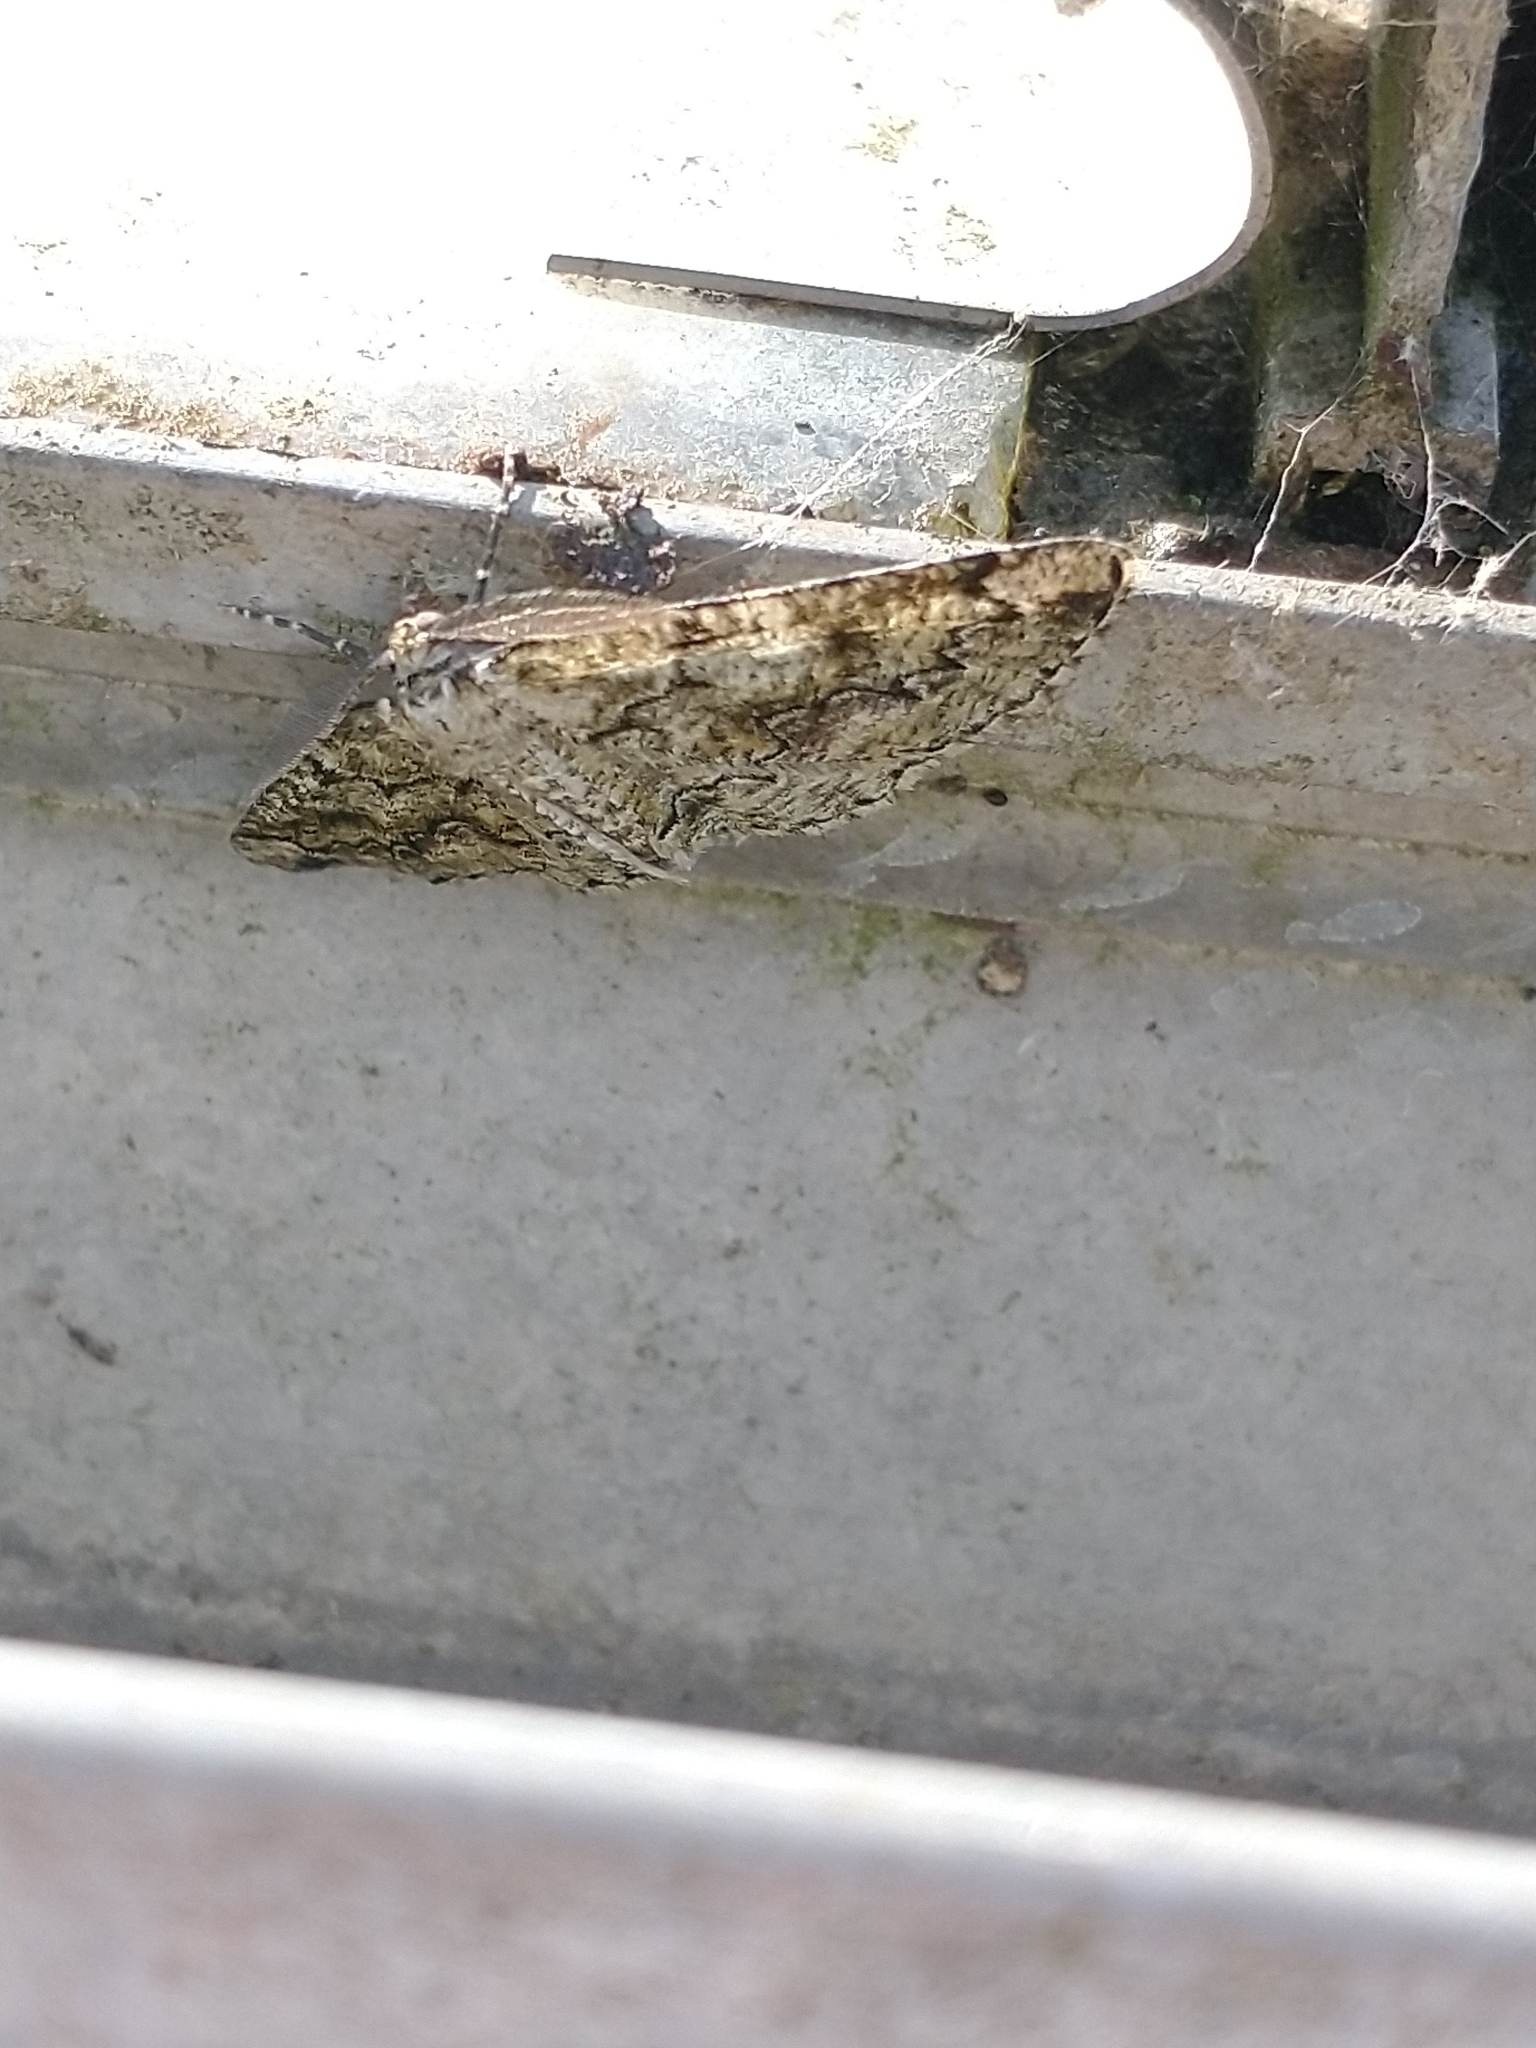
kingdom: Animalia
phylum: Arthropoda
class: Insecta
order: Lepidoptera
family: Geometridae
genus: Cleorodes
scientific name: Cleorodes lichenaria
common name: Brussels lace
